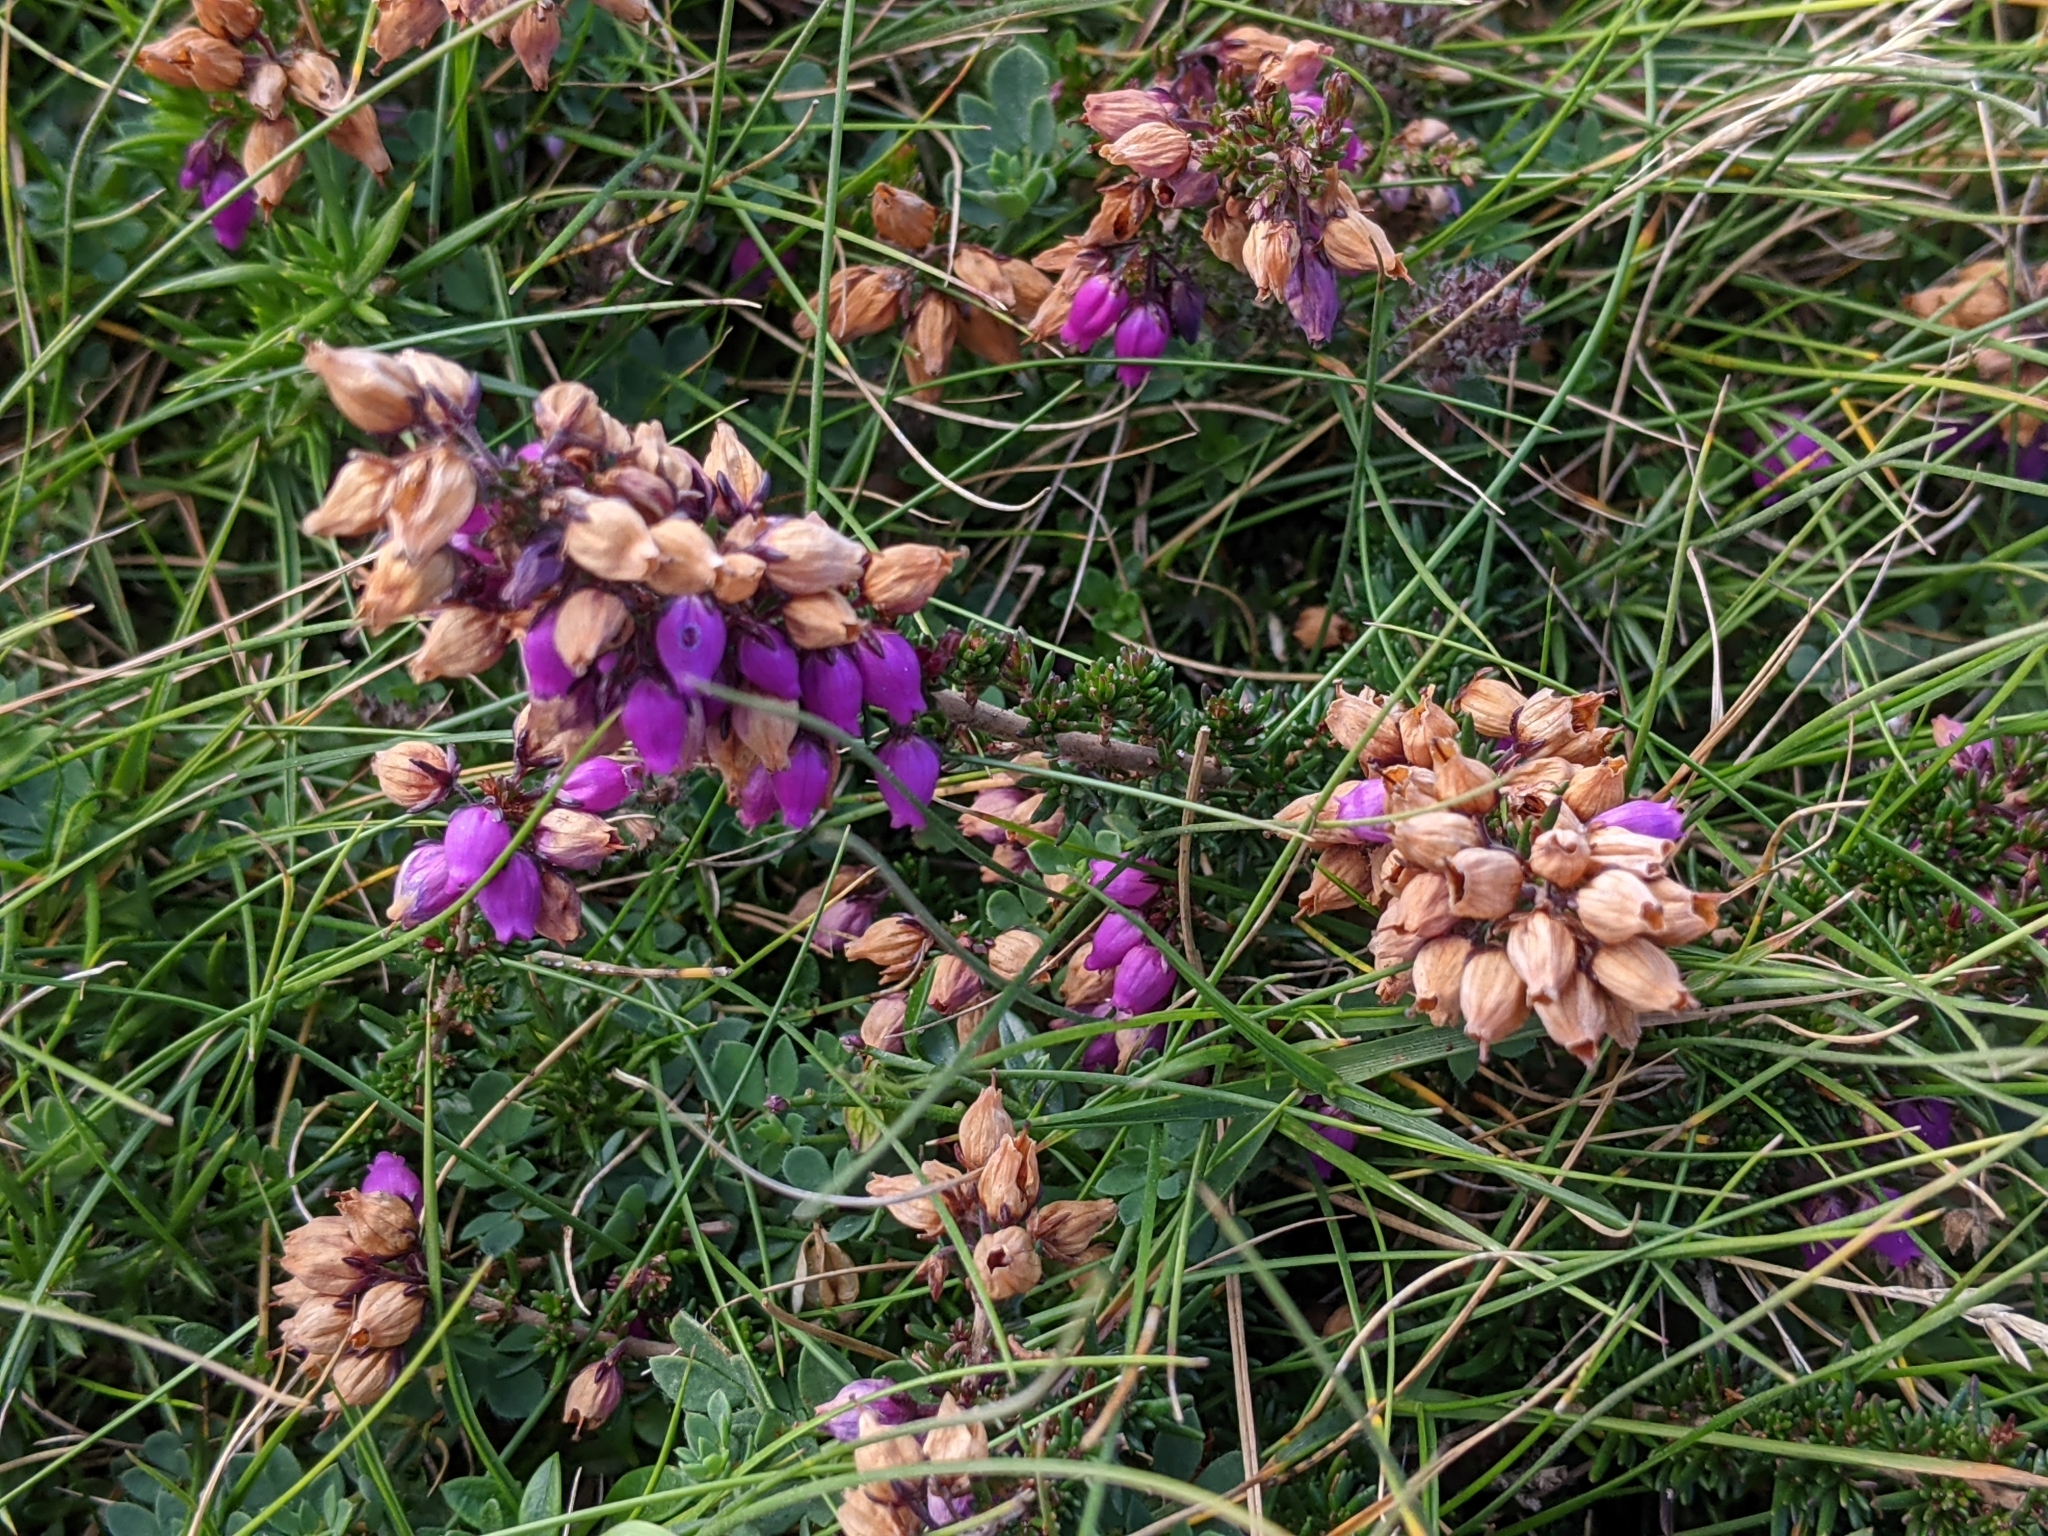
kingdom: Plantae
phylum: Tracheophyta
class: Magnoliopsida
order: Ericales
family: Ericaceae
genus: Erica
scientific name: Erica cinerea
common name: Bell heather
